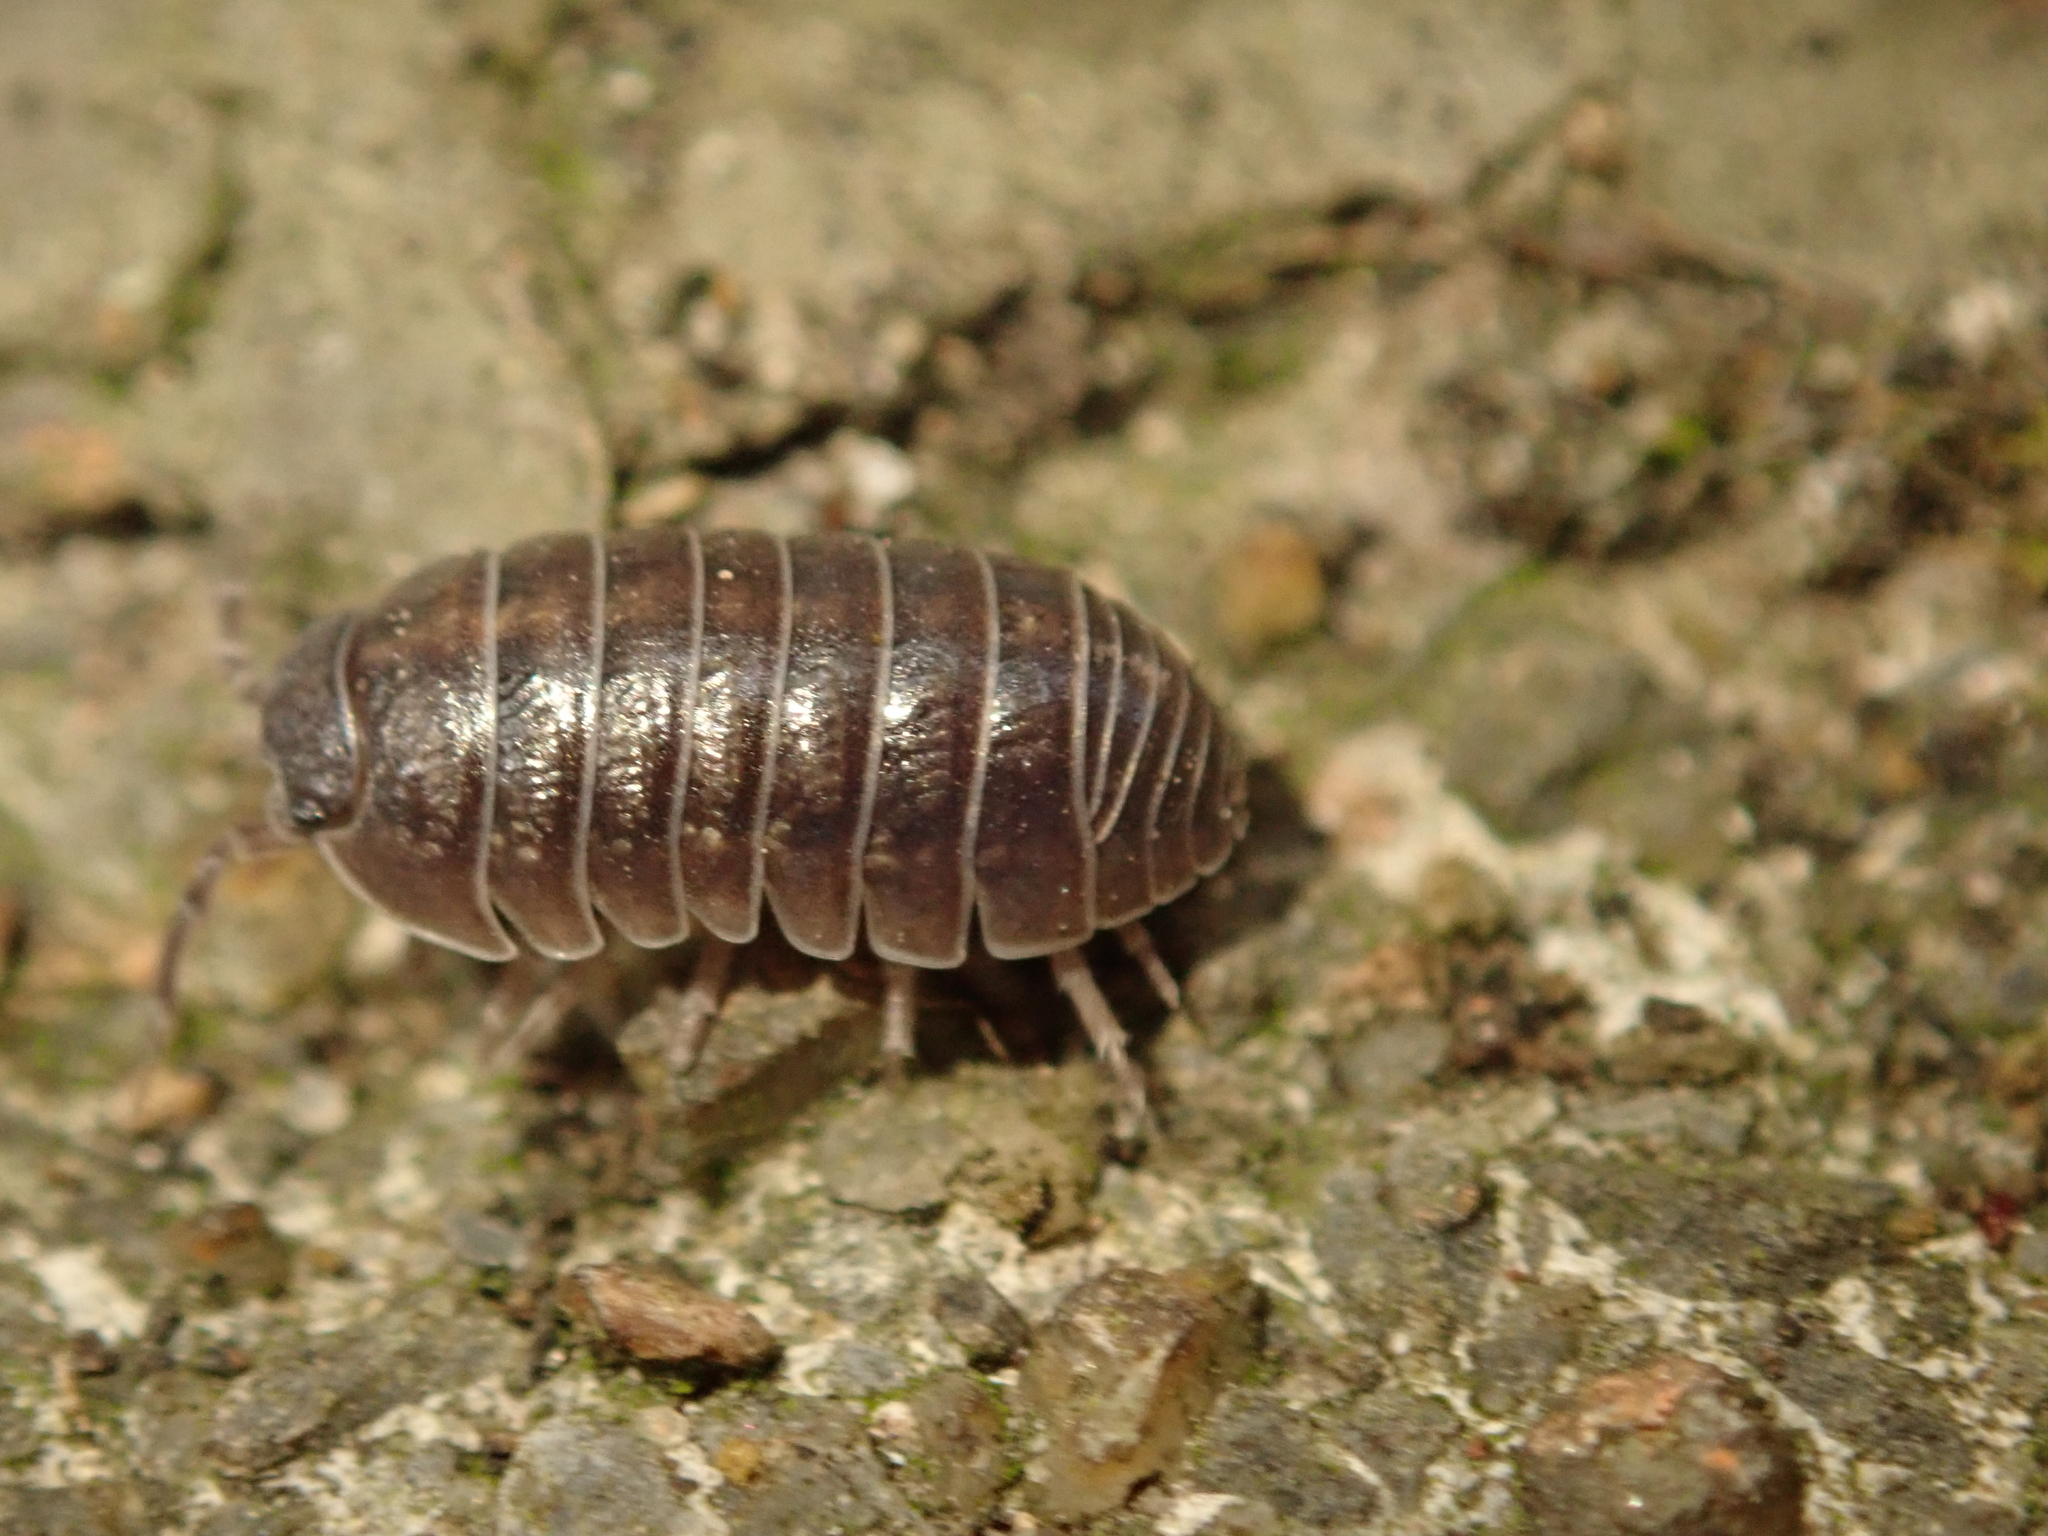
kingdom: Animalia
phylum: Arthropoda
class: Malacostraca
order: Isopoda
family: Armadillidiidae
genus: Armadillidium
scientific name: Armadillidium vulgare
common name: Common pill woodlouse
